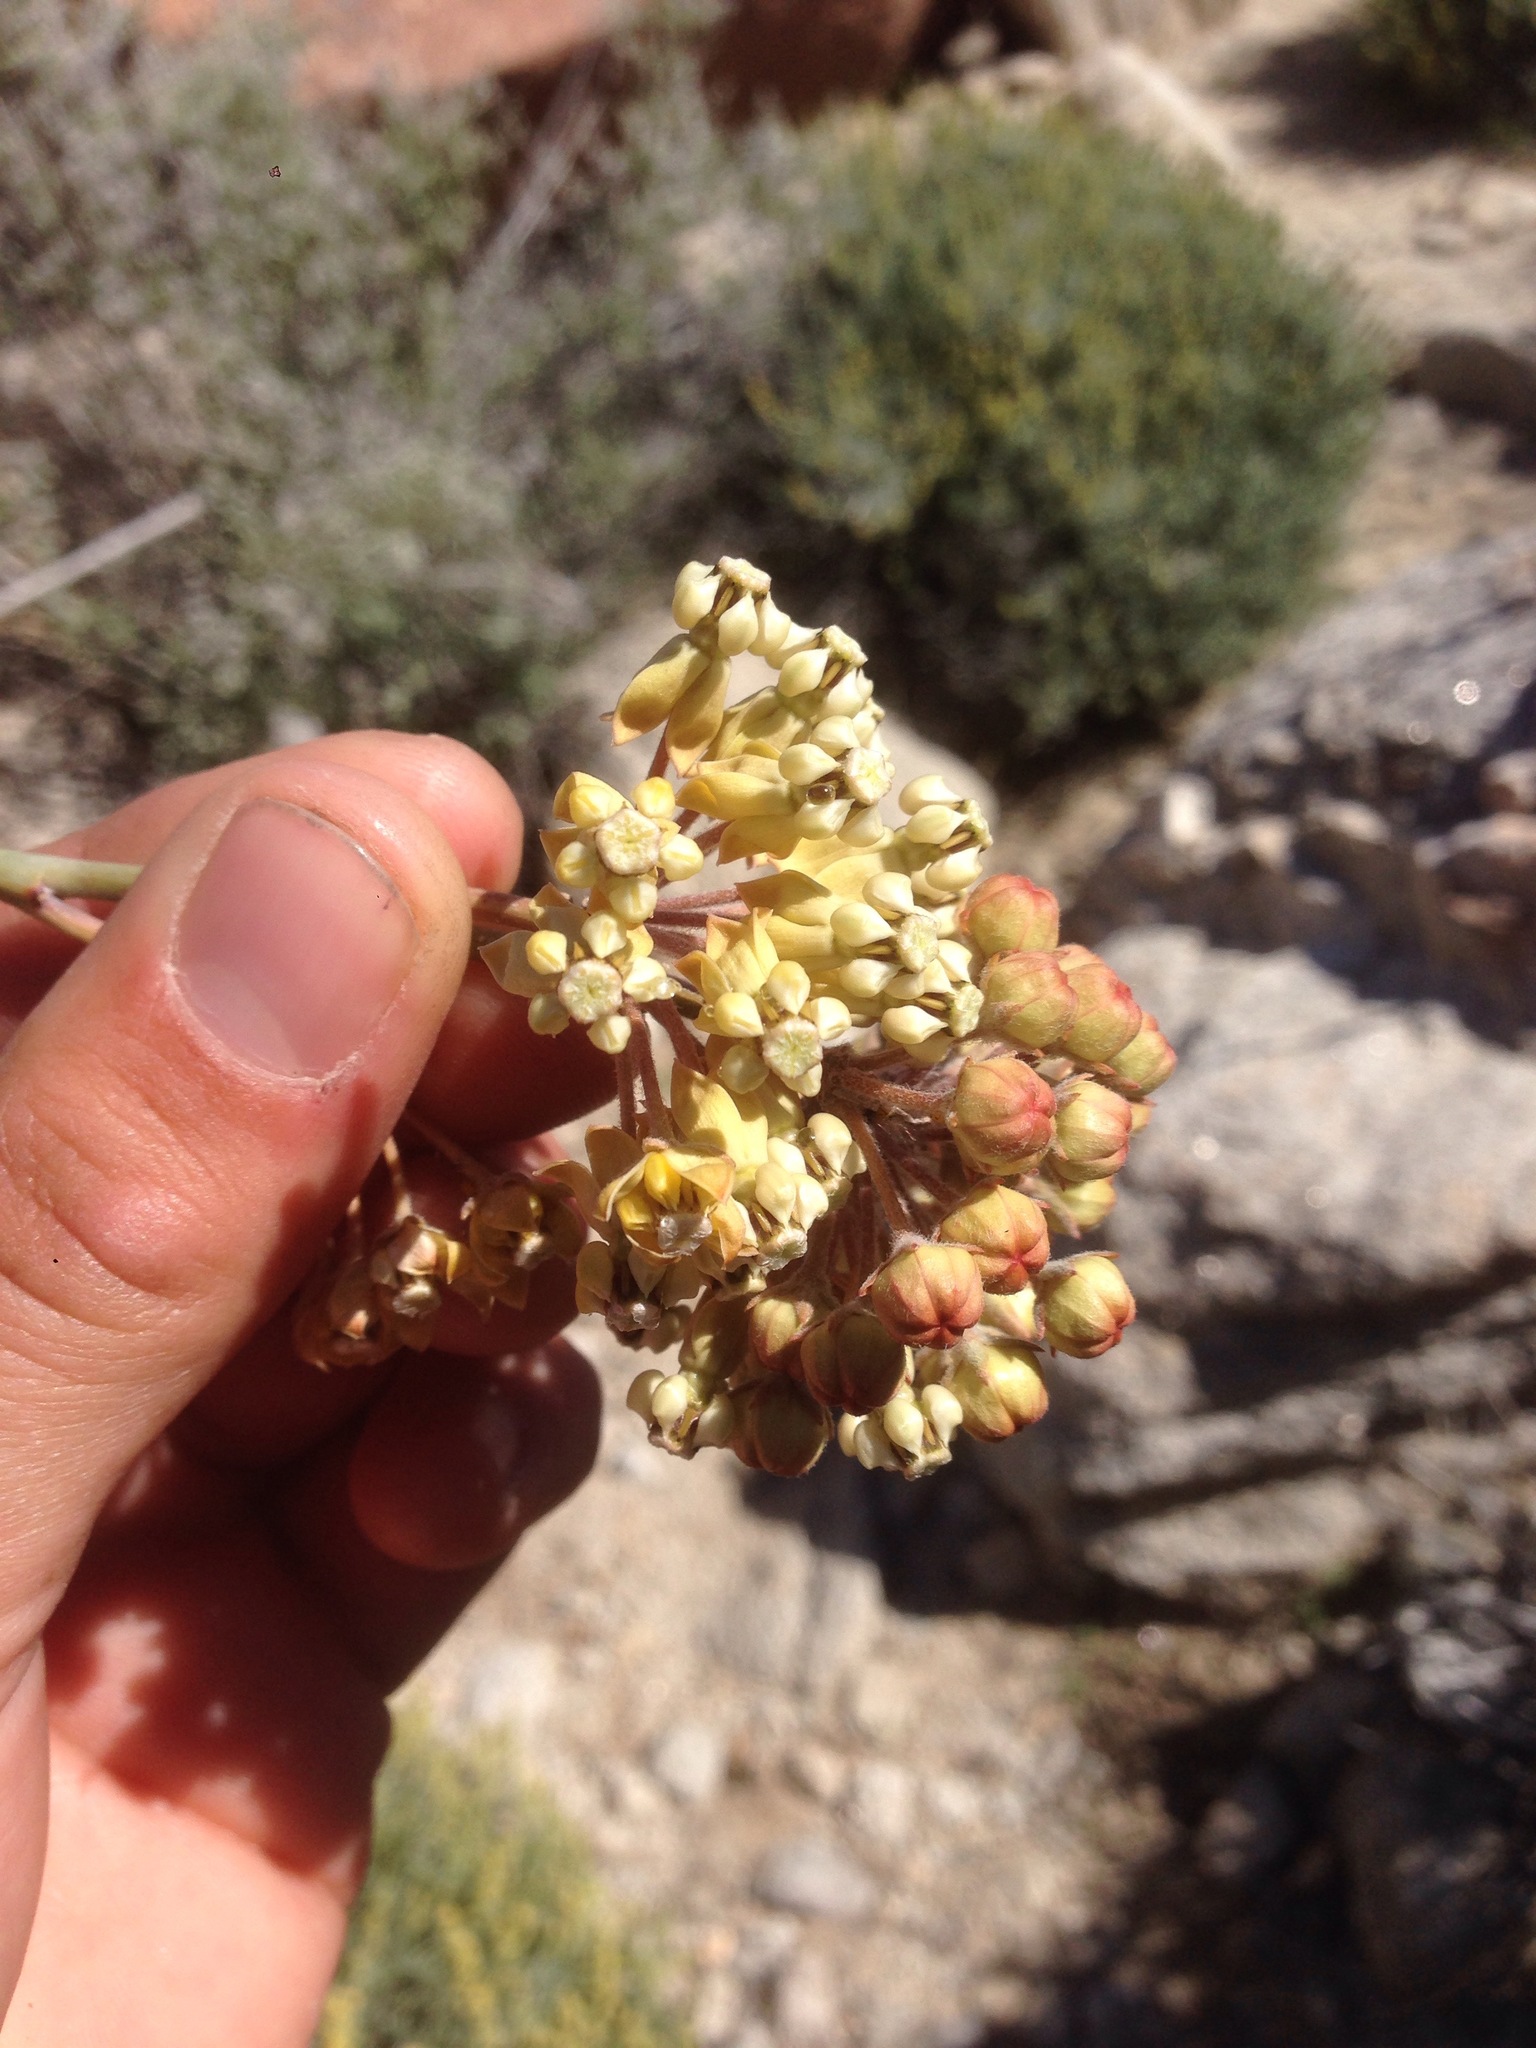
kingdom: Plantae
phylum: Tracheophyta
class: Magnoliopsida
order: Gentianales
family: Apocynaceae
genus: Asclepias
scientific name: Asclepias albicans
